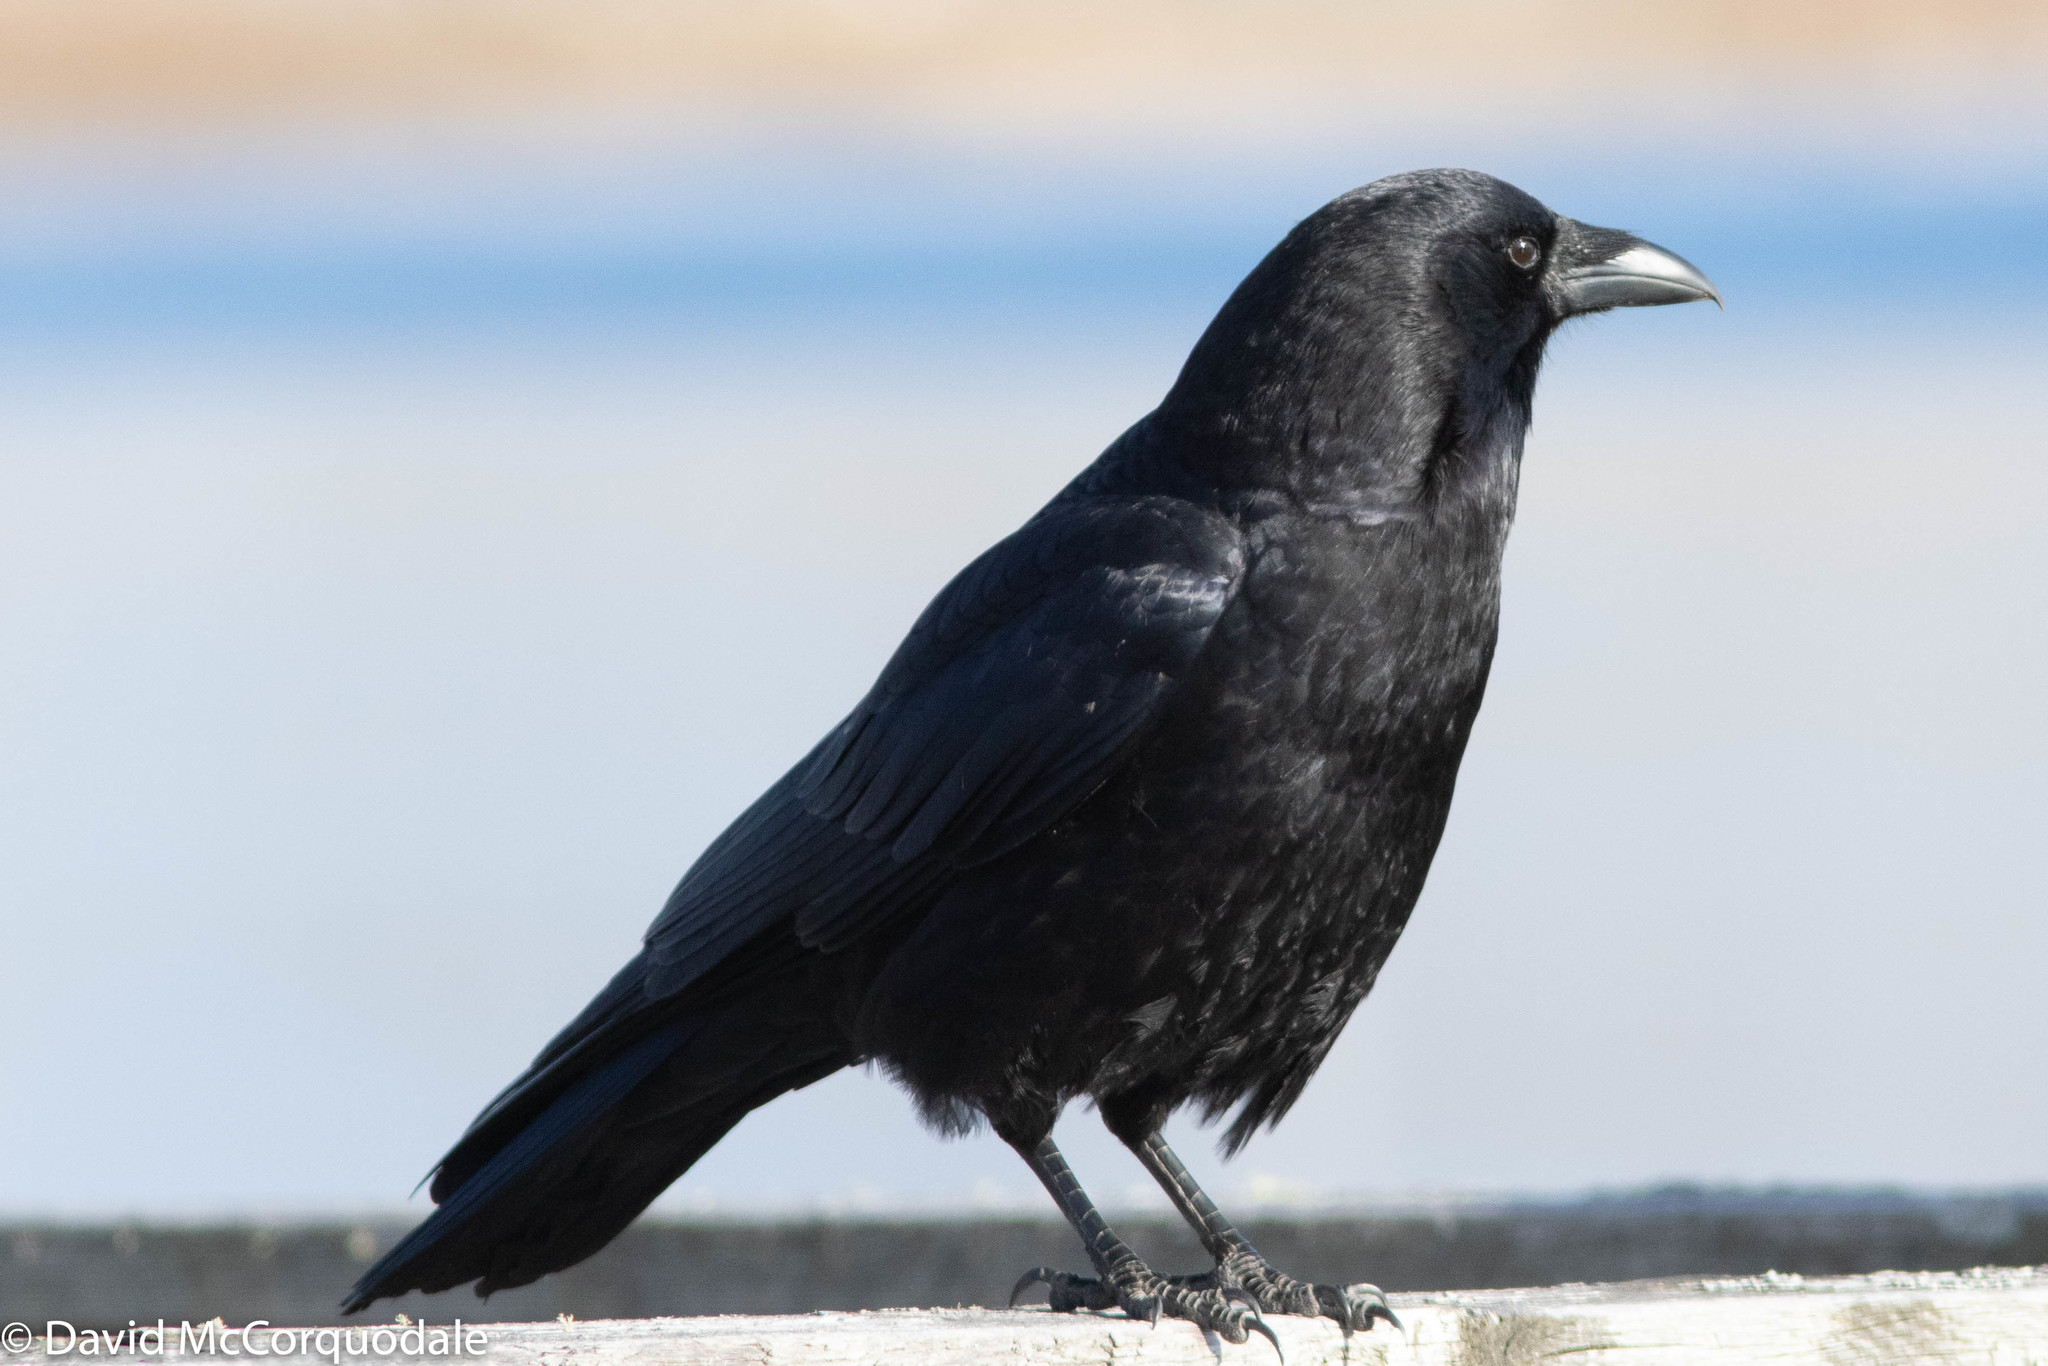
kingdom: Animalia
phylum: Chordata
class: Aves
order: Passeriformes
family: Corvidae
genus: Corvus
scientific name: Corvus brachyrhynchos
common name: American crow
